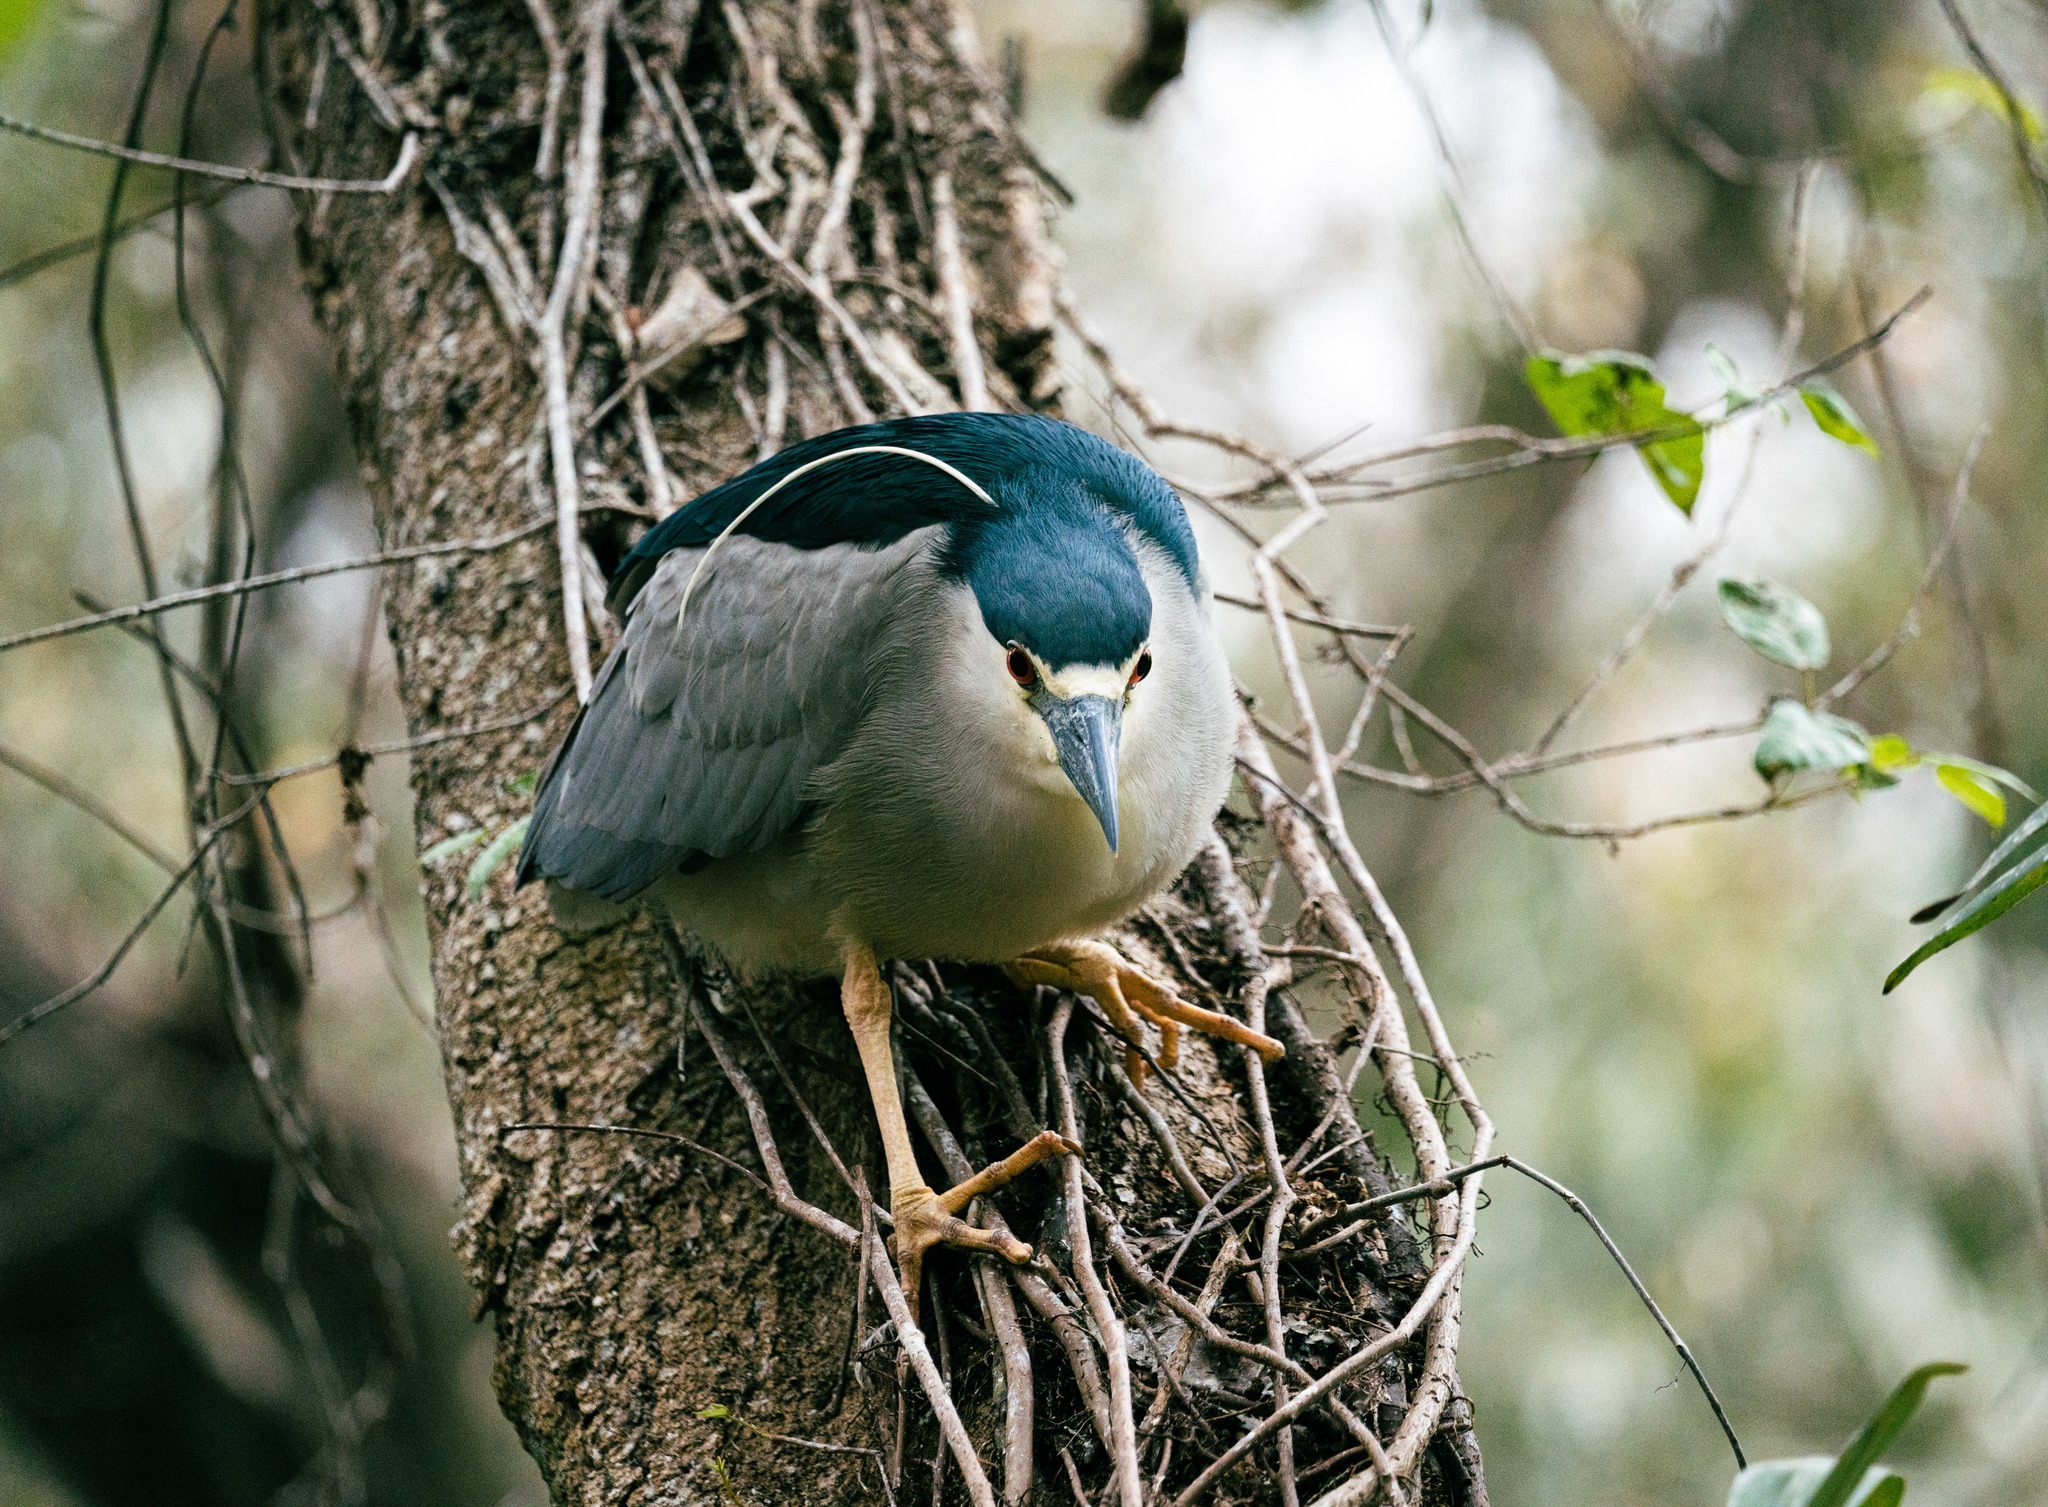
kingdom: Animalia
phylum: Chordata
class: Aves
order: Pelecaniformes
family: Ardeidae
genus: Nycticorax
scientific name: Nycticorax nycticorax
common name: Black-crowned night heron
